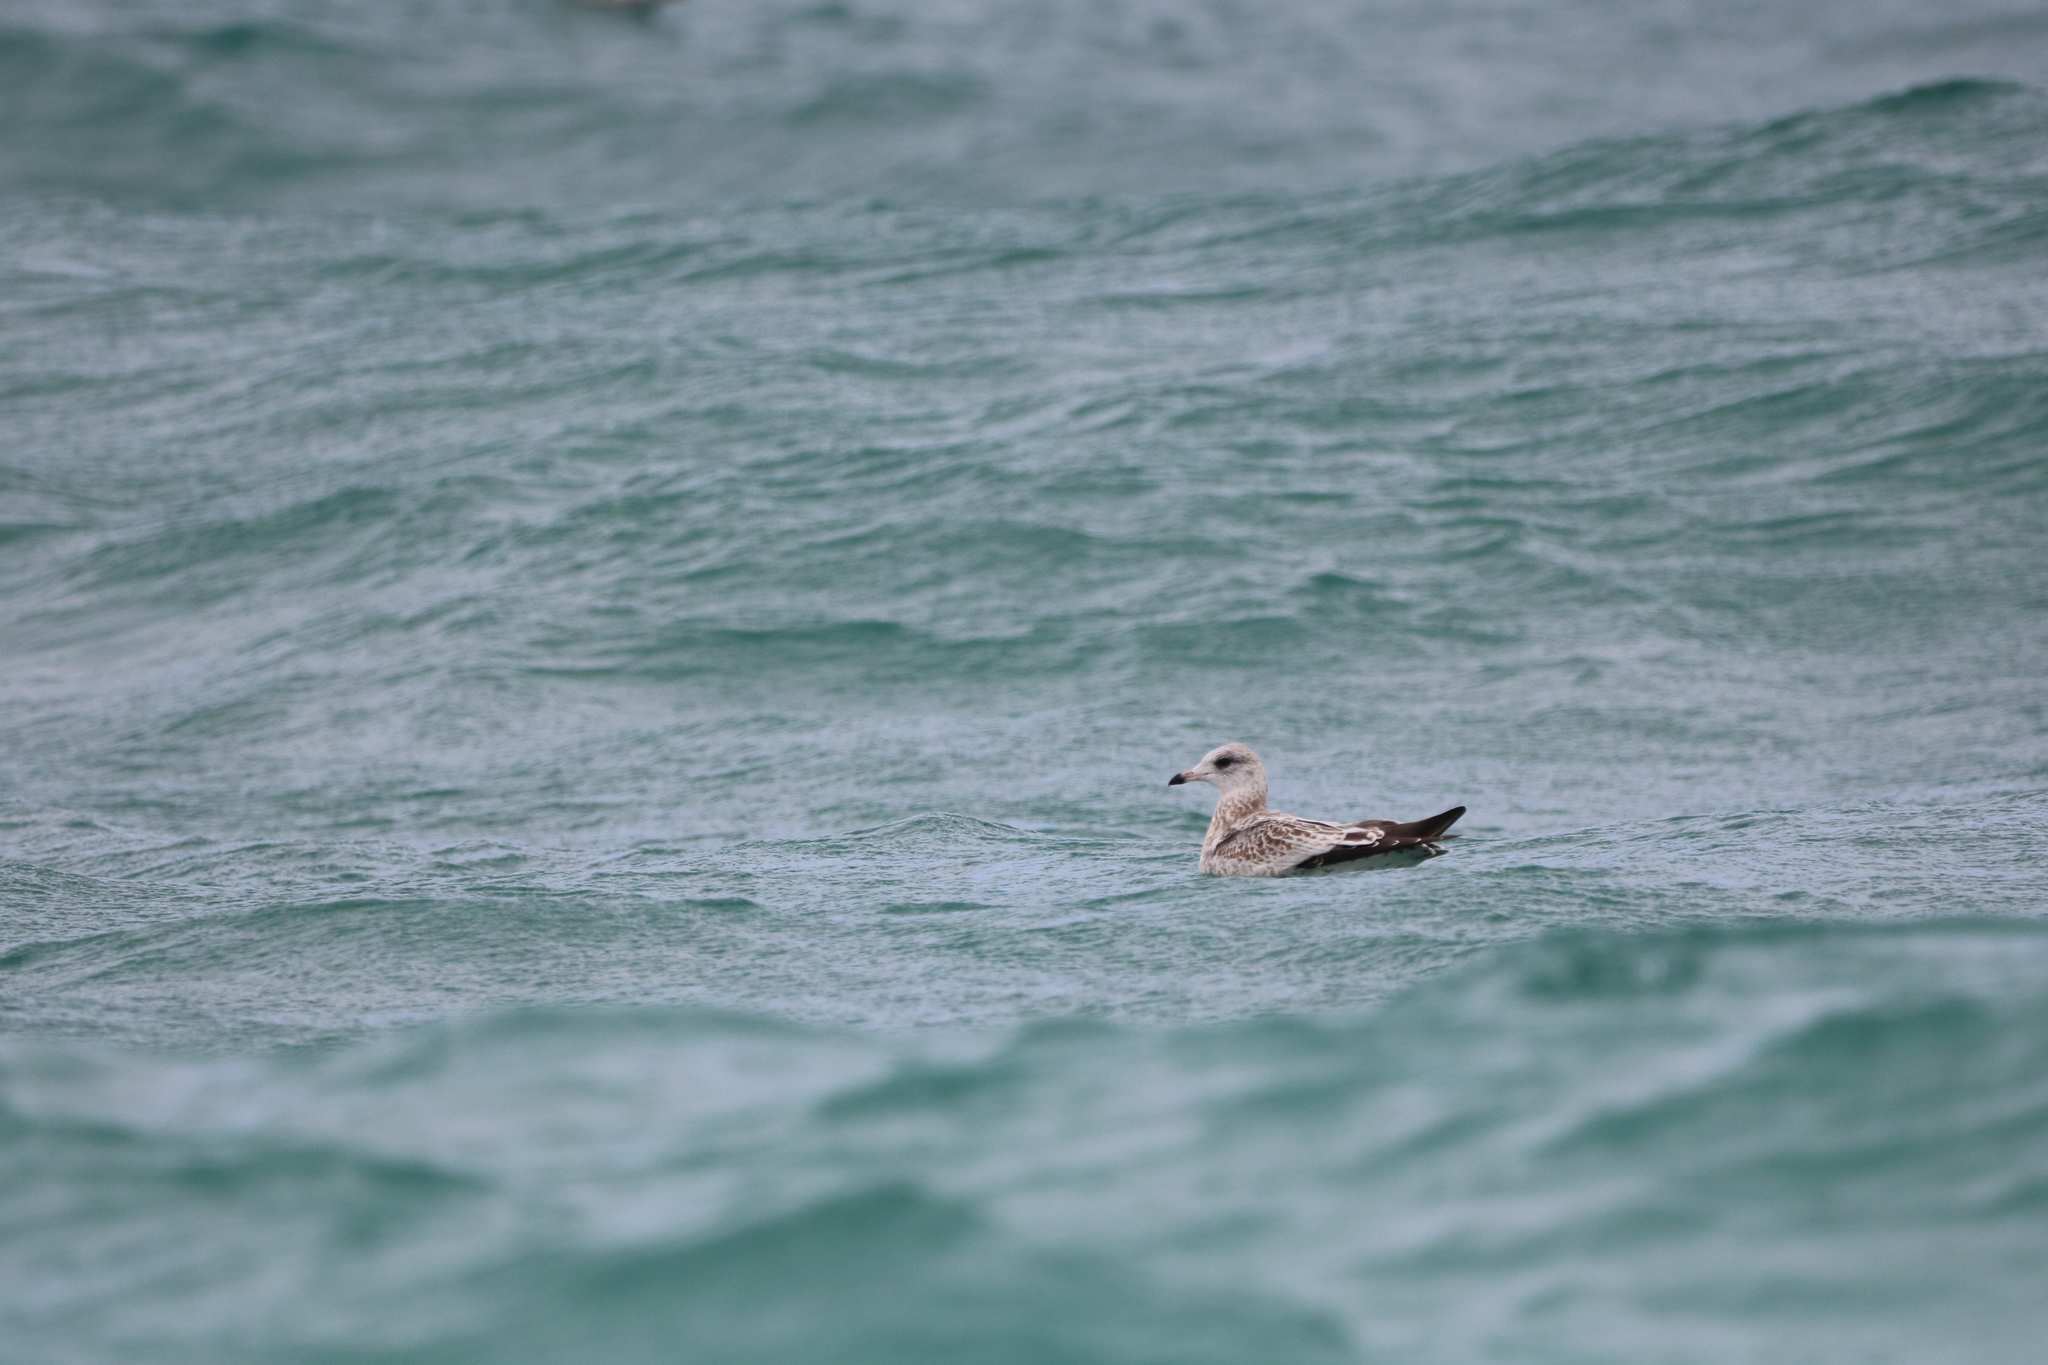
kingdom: Animalia
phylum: Chordata
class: Aves
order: Charadriiformes
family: Laridae
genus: Larus
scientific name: Larus delawarensis
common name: Ring-billed gull
